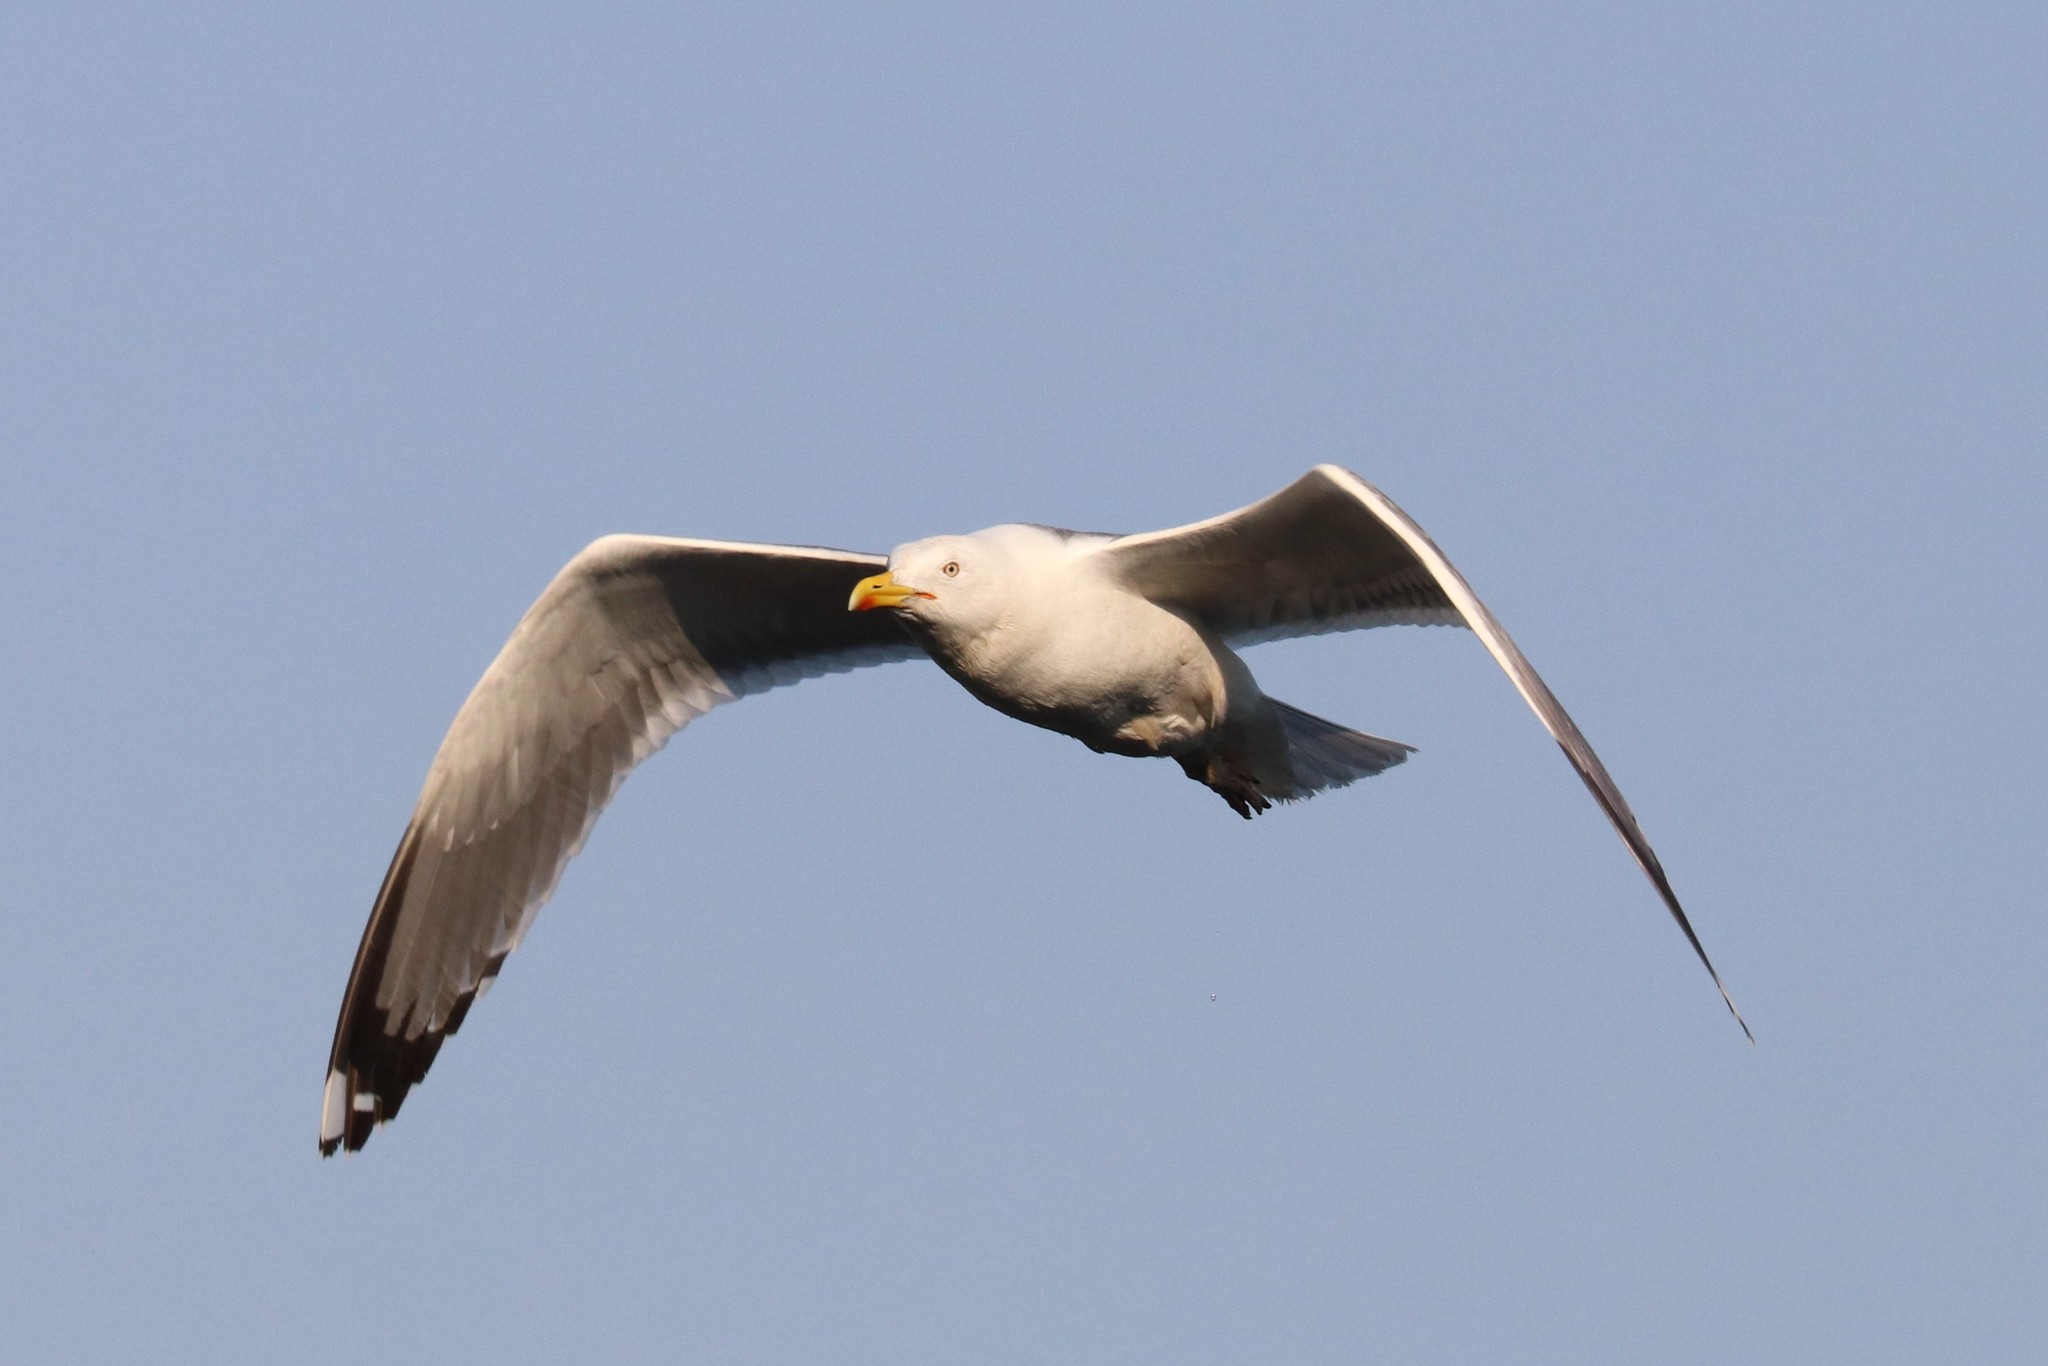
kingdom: Animalia
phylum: Chordata
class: Aves
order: Charadriiformes
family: Laridae
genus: Larus
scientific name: Larus argentatus
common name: Herring gull
